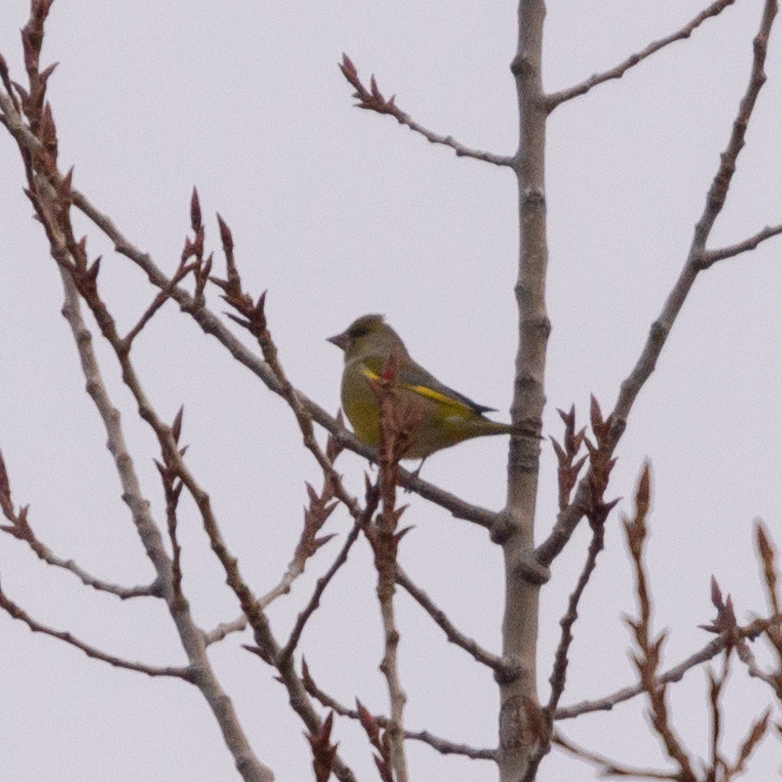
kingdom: Plantae
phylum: Tracheophyta
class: Liliopsida
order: Poales
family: Poaceae
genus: Chloris
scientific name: Chloris chloris
